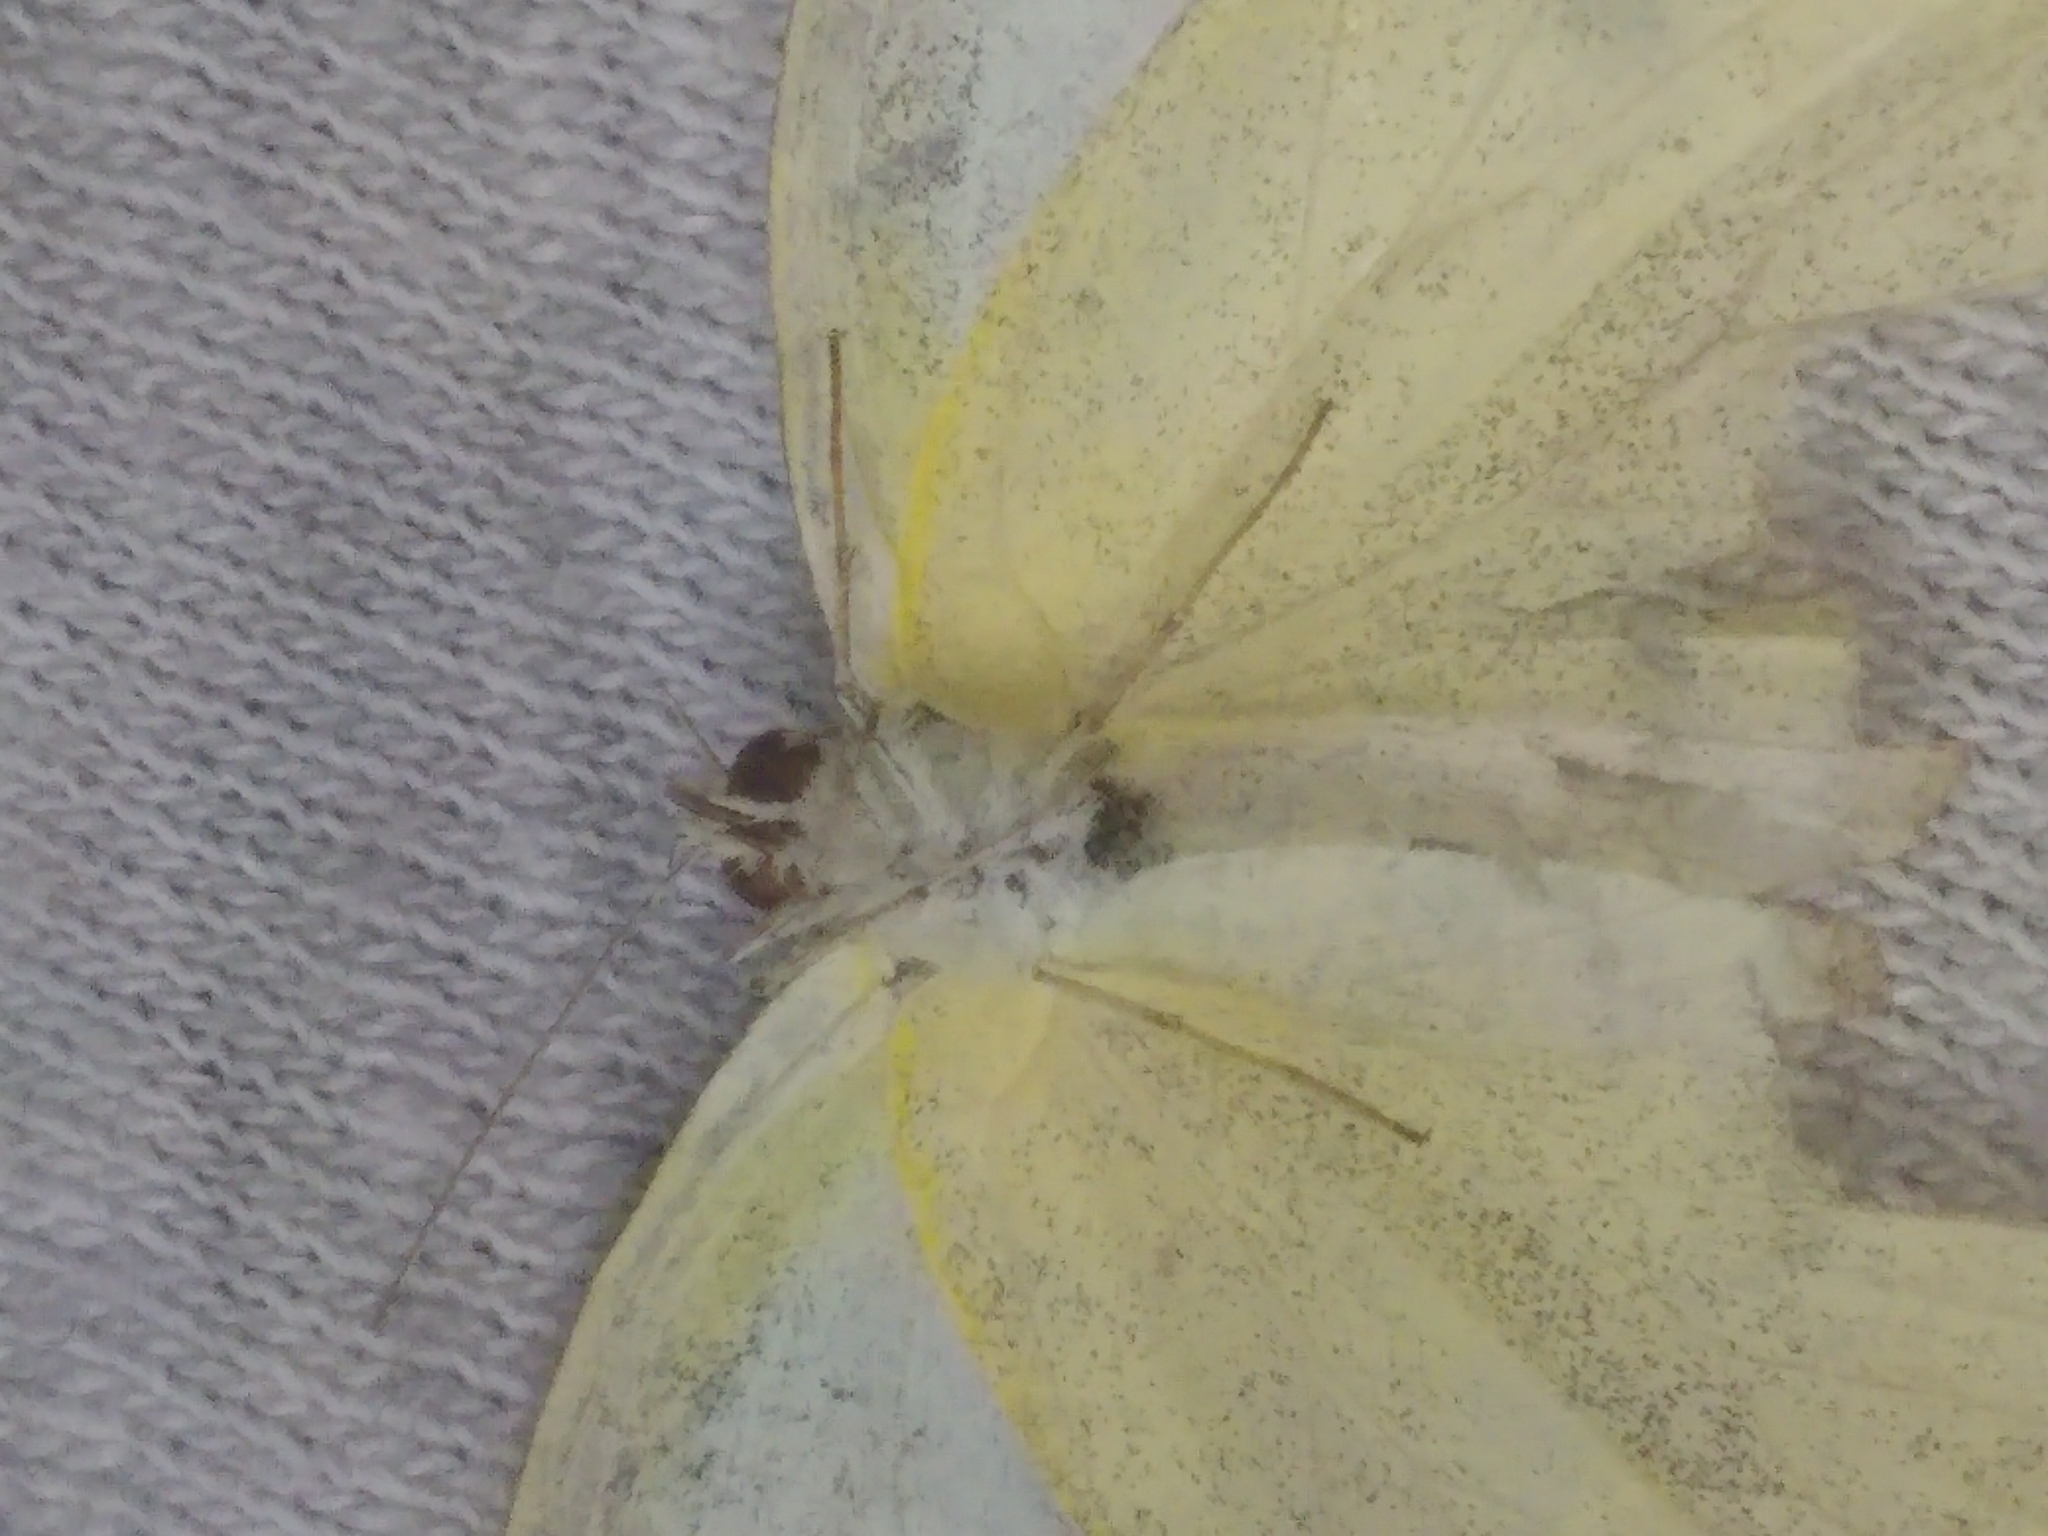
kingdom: Animalia
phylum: Arthropoda
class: Insecta
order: Lepidoptera
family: Pieridae
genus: Pieris
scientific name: Pieris rapae
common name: Small white
